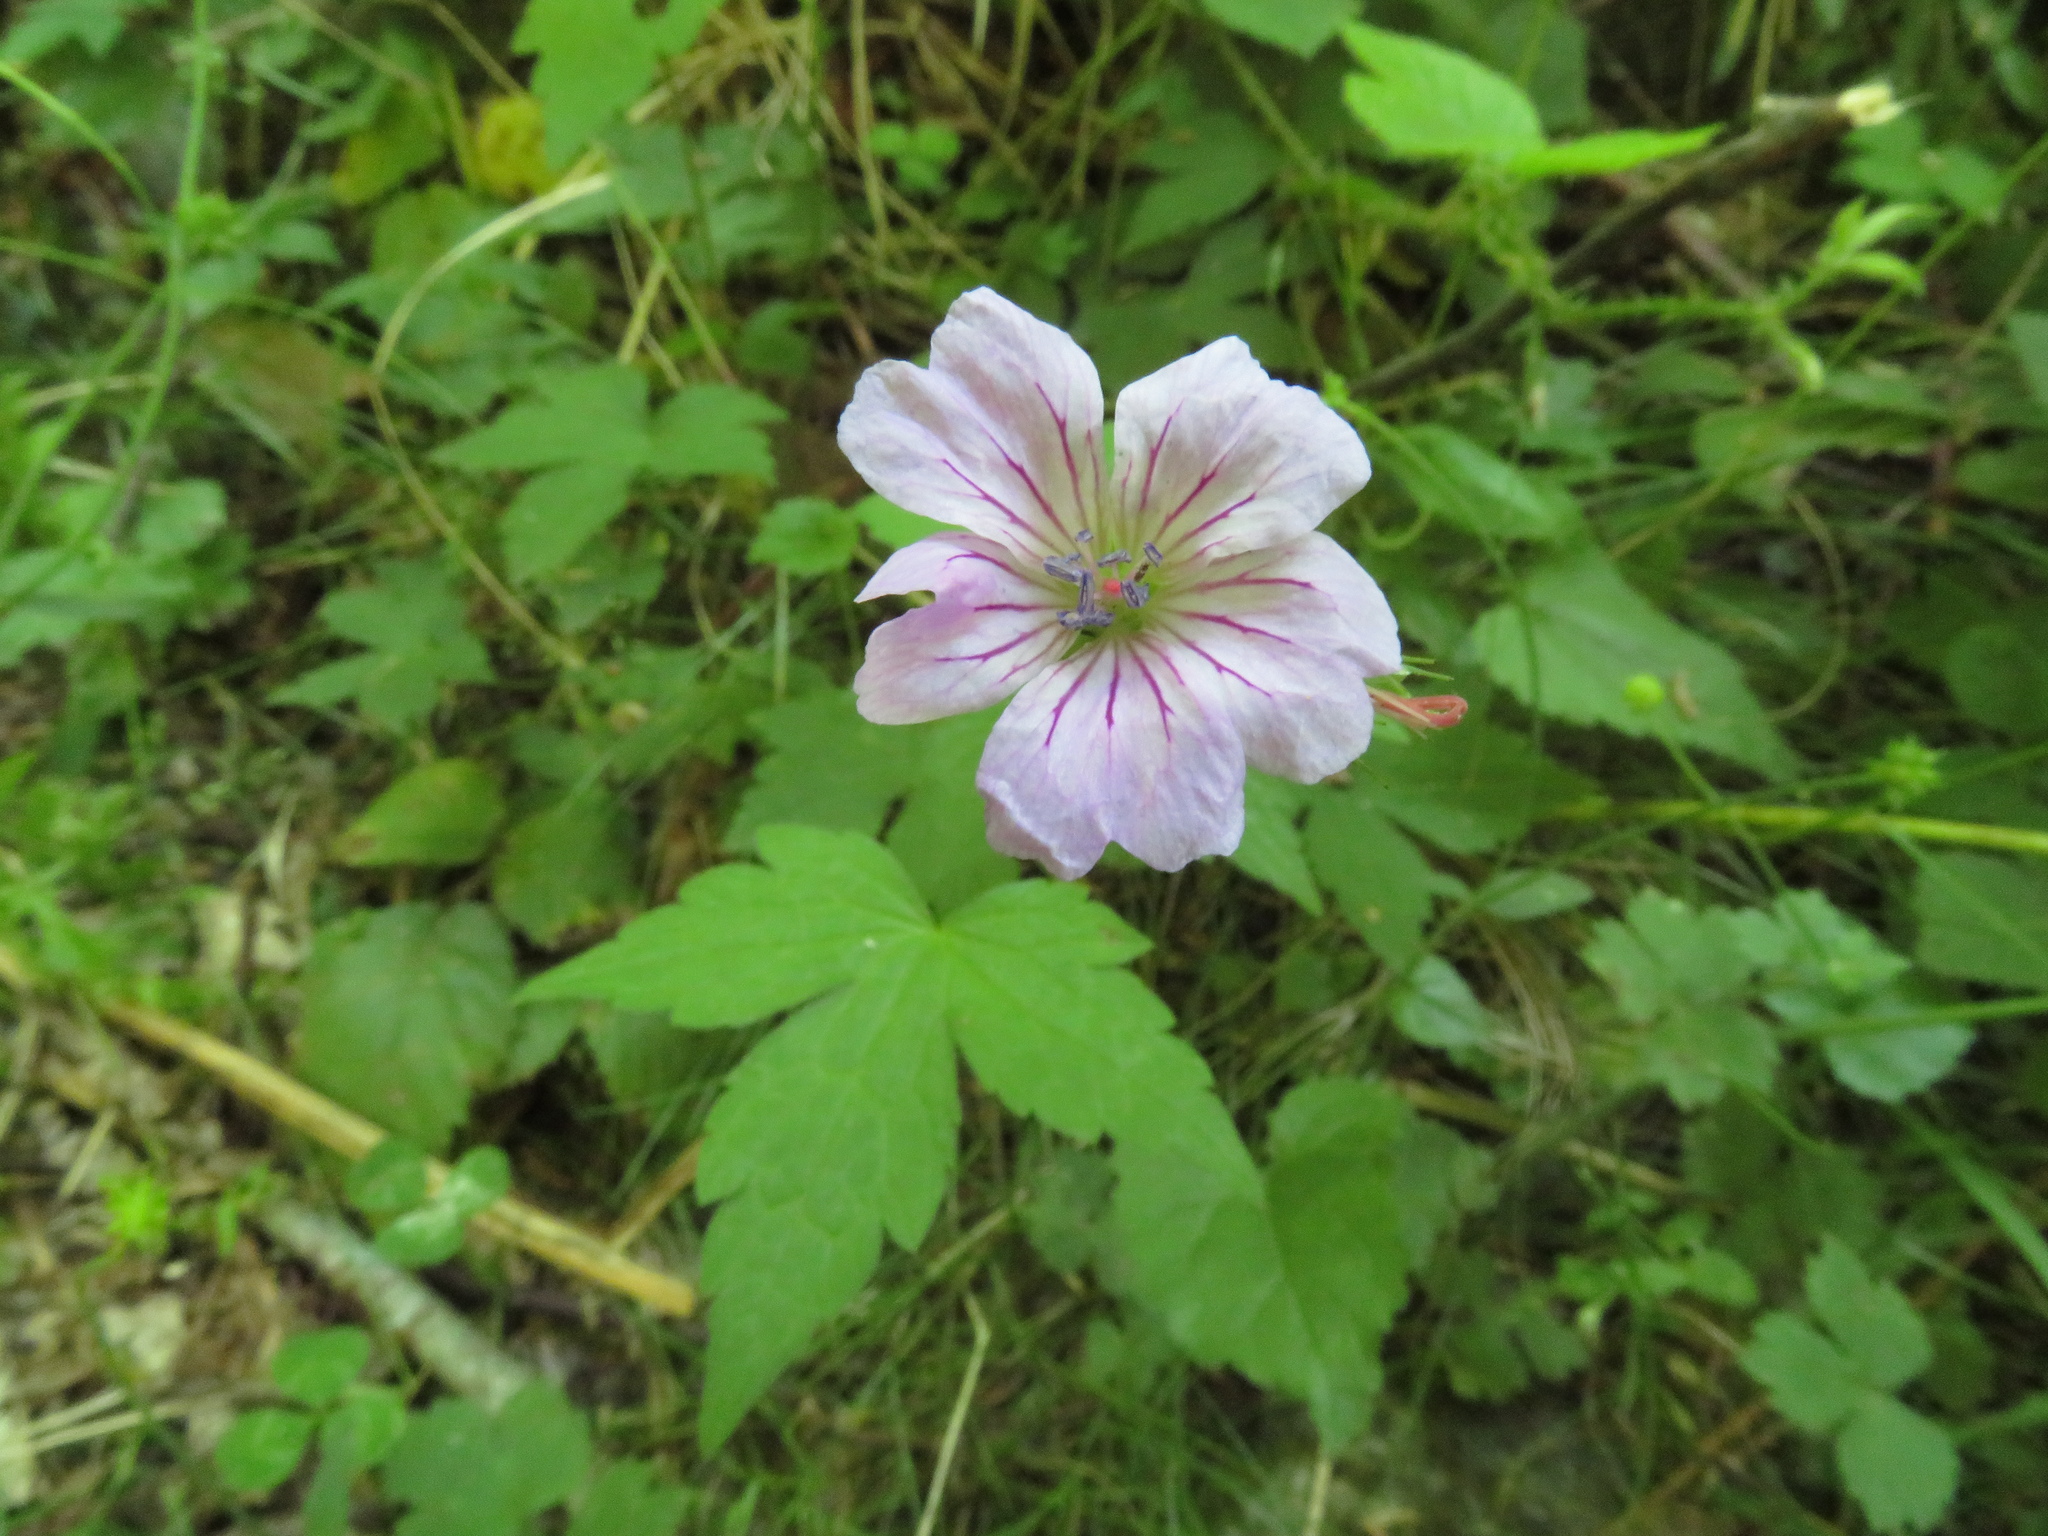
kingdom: Plantae
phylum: Tracheophyta
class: Magnoliopsida
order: Geraniales
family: Geraniaceae
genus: Geranium
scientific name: Geranium nodosum
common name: Knotted crane's-bill
